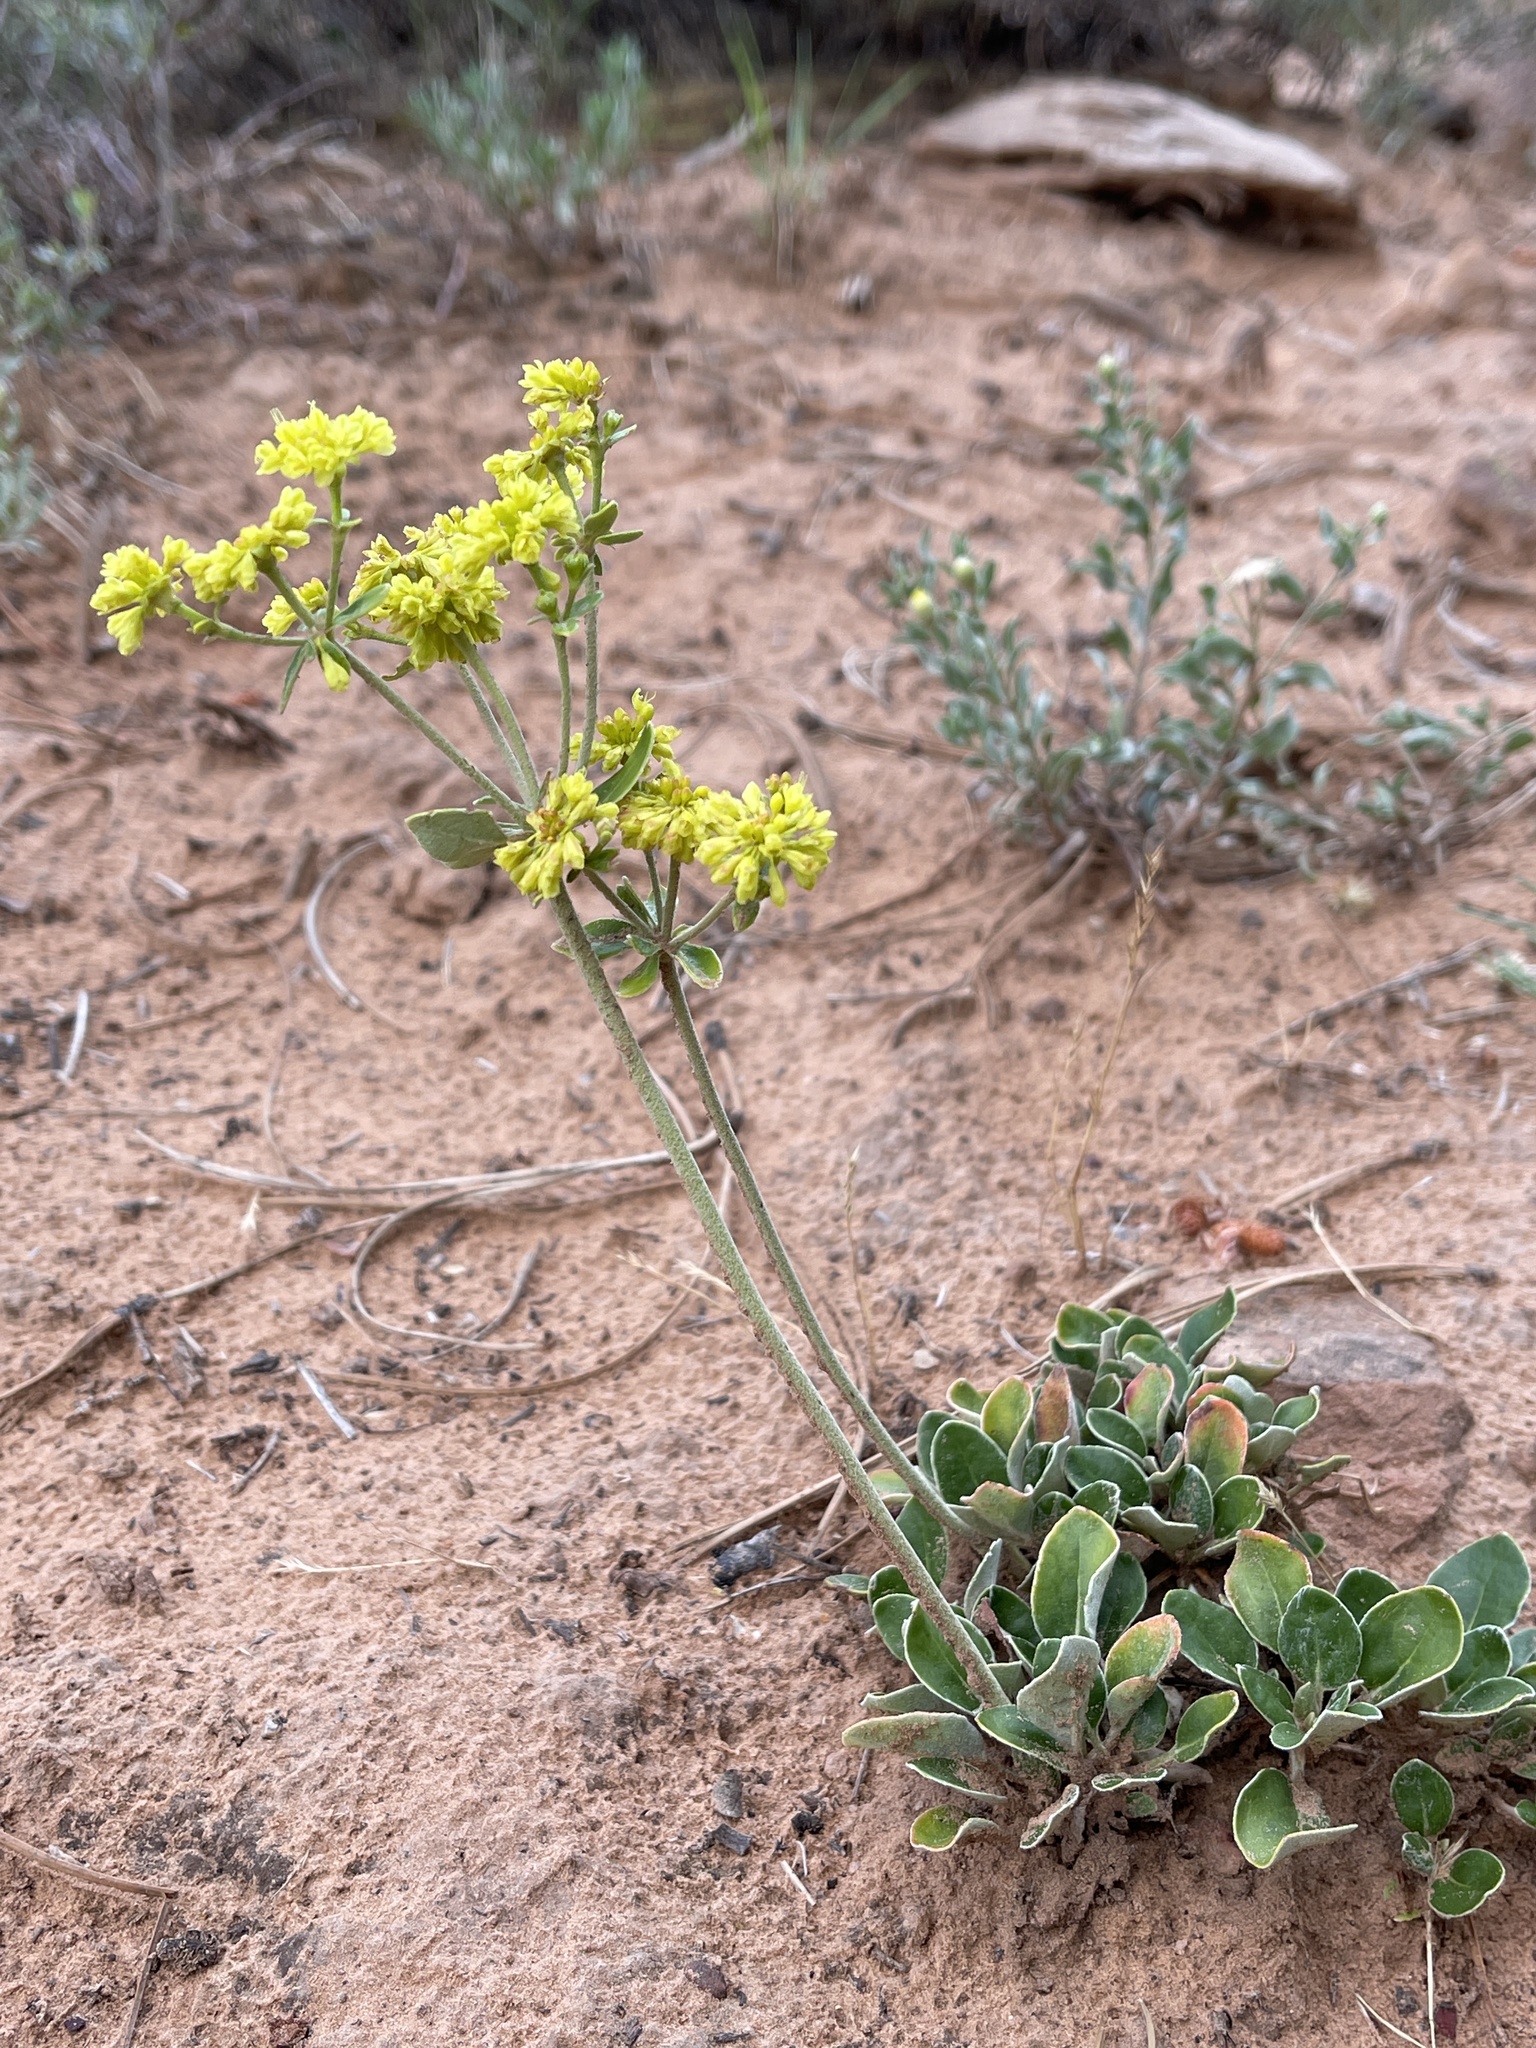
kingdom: Plantae
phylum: Tracheophyta
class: Magnoliopsida
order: Caryophyllales
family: Polygonaceae
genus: Eriogonum
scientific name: Eriogonum umbellatum
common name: Sulfur-buckwheat
